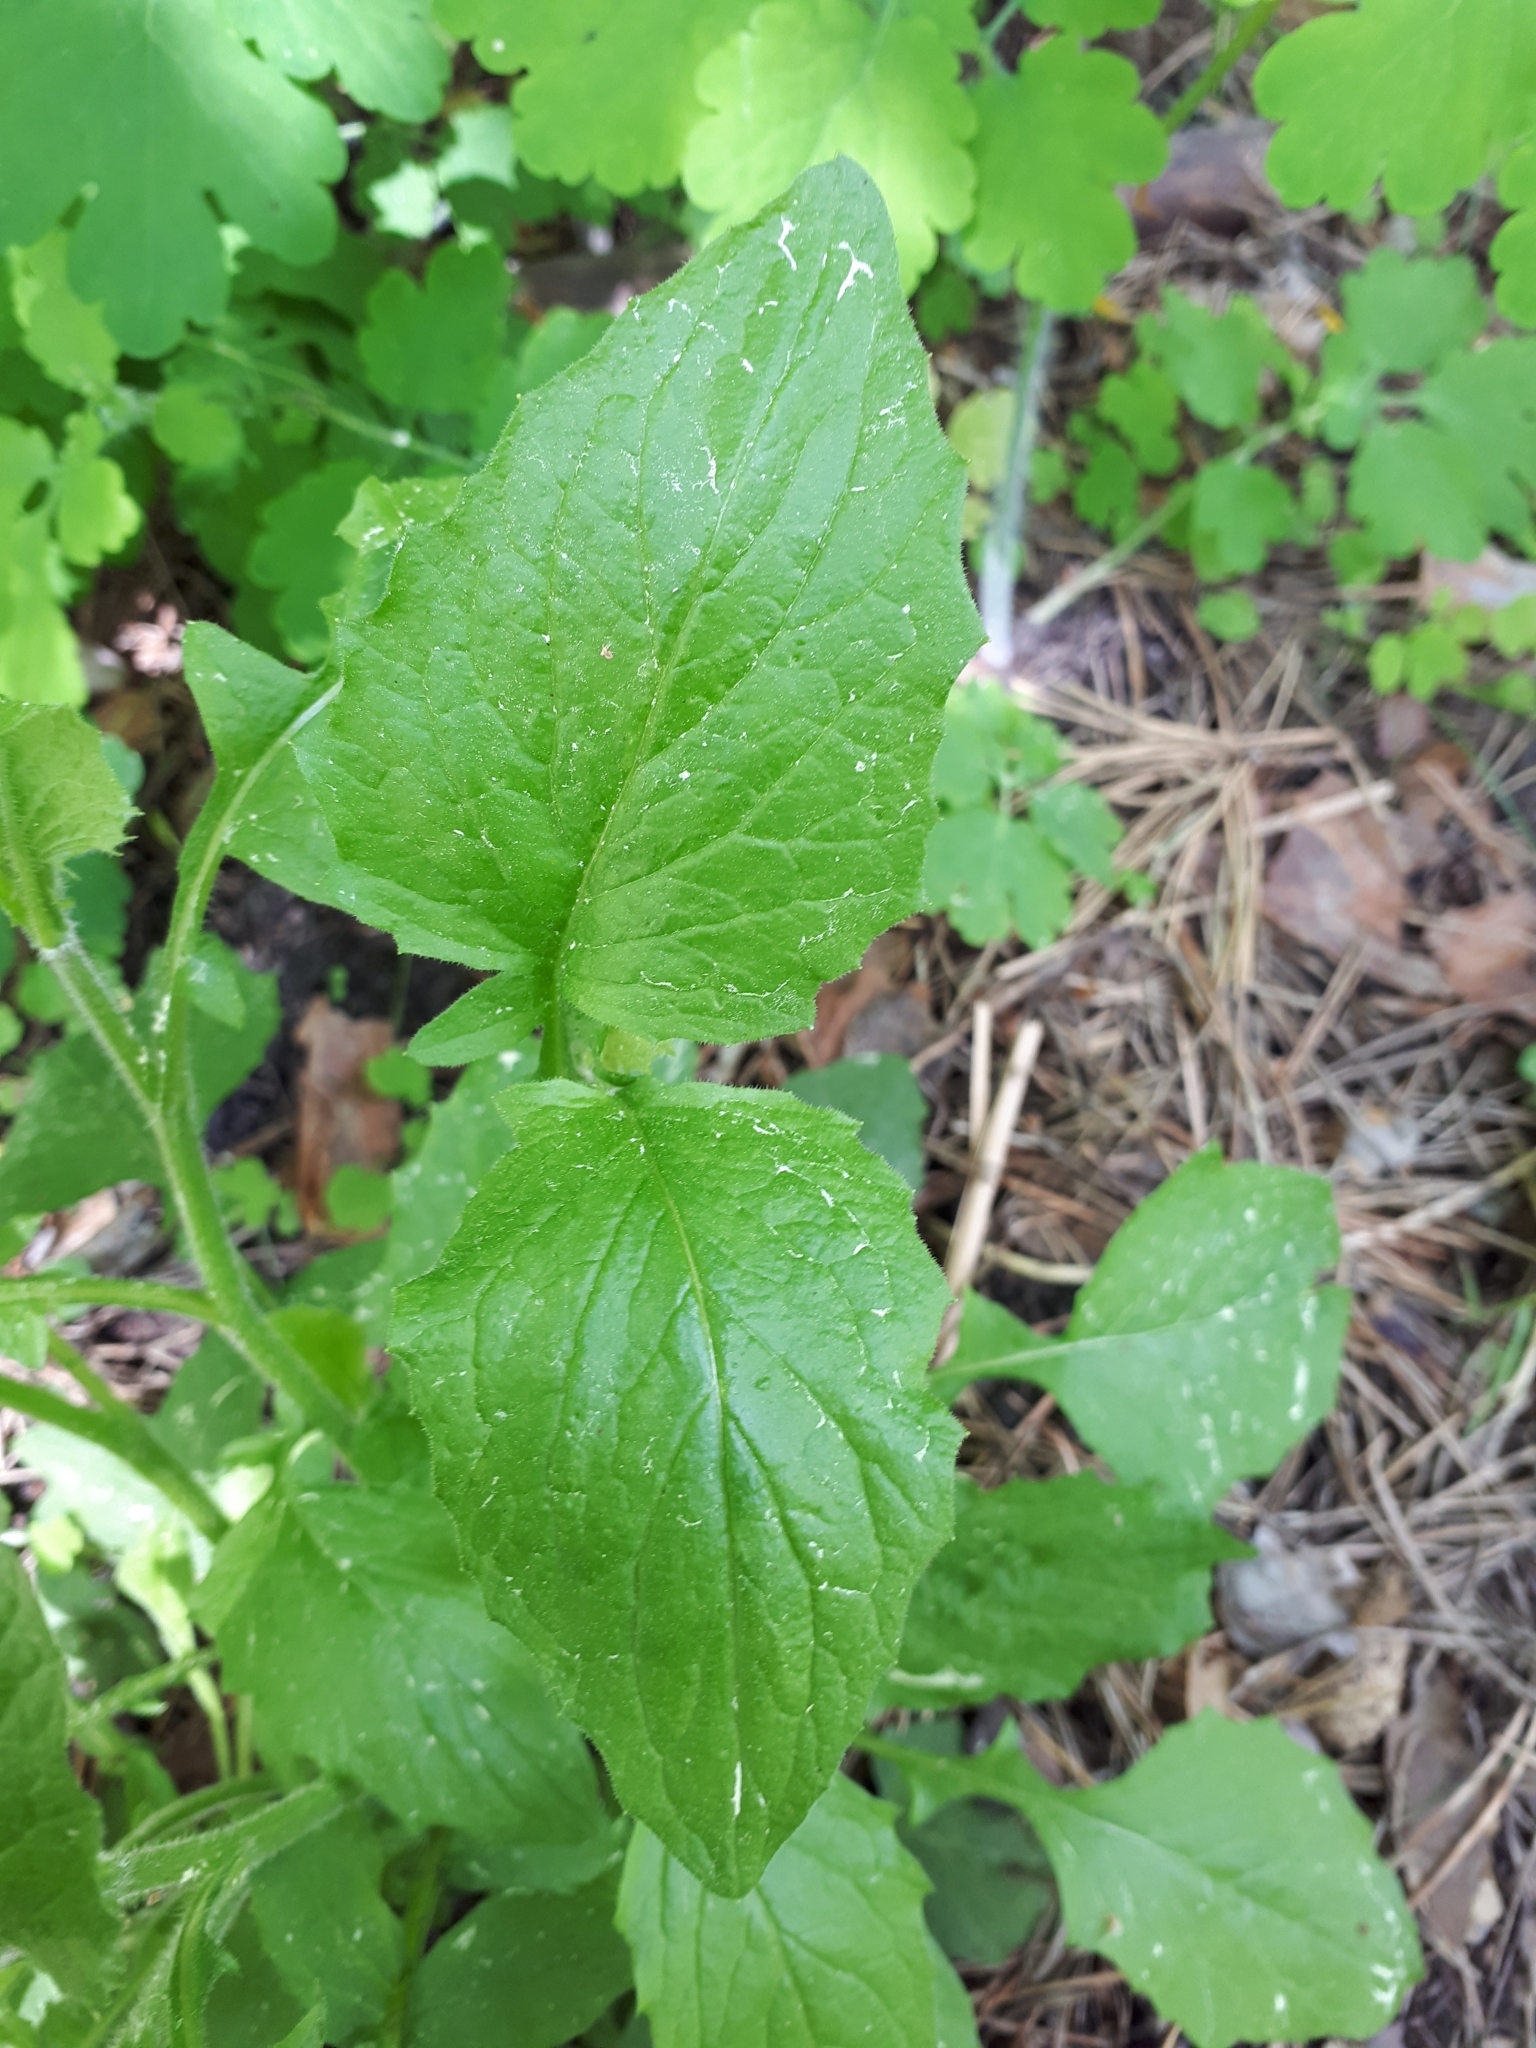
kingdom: Plantae
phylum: Tracheophyta
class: Magnoliopsida
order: Asterales
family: Asteraceae
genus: Lapsana
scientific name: Lapsana communis
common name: Nipplewort
